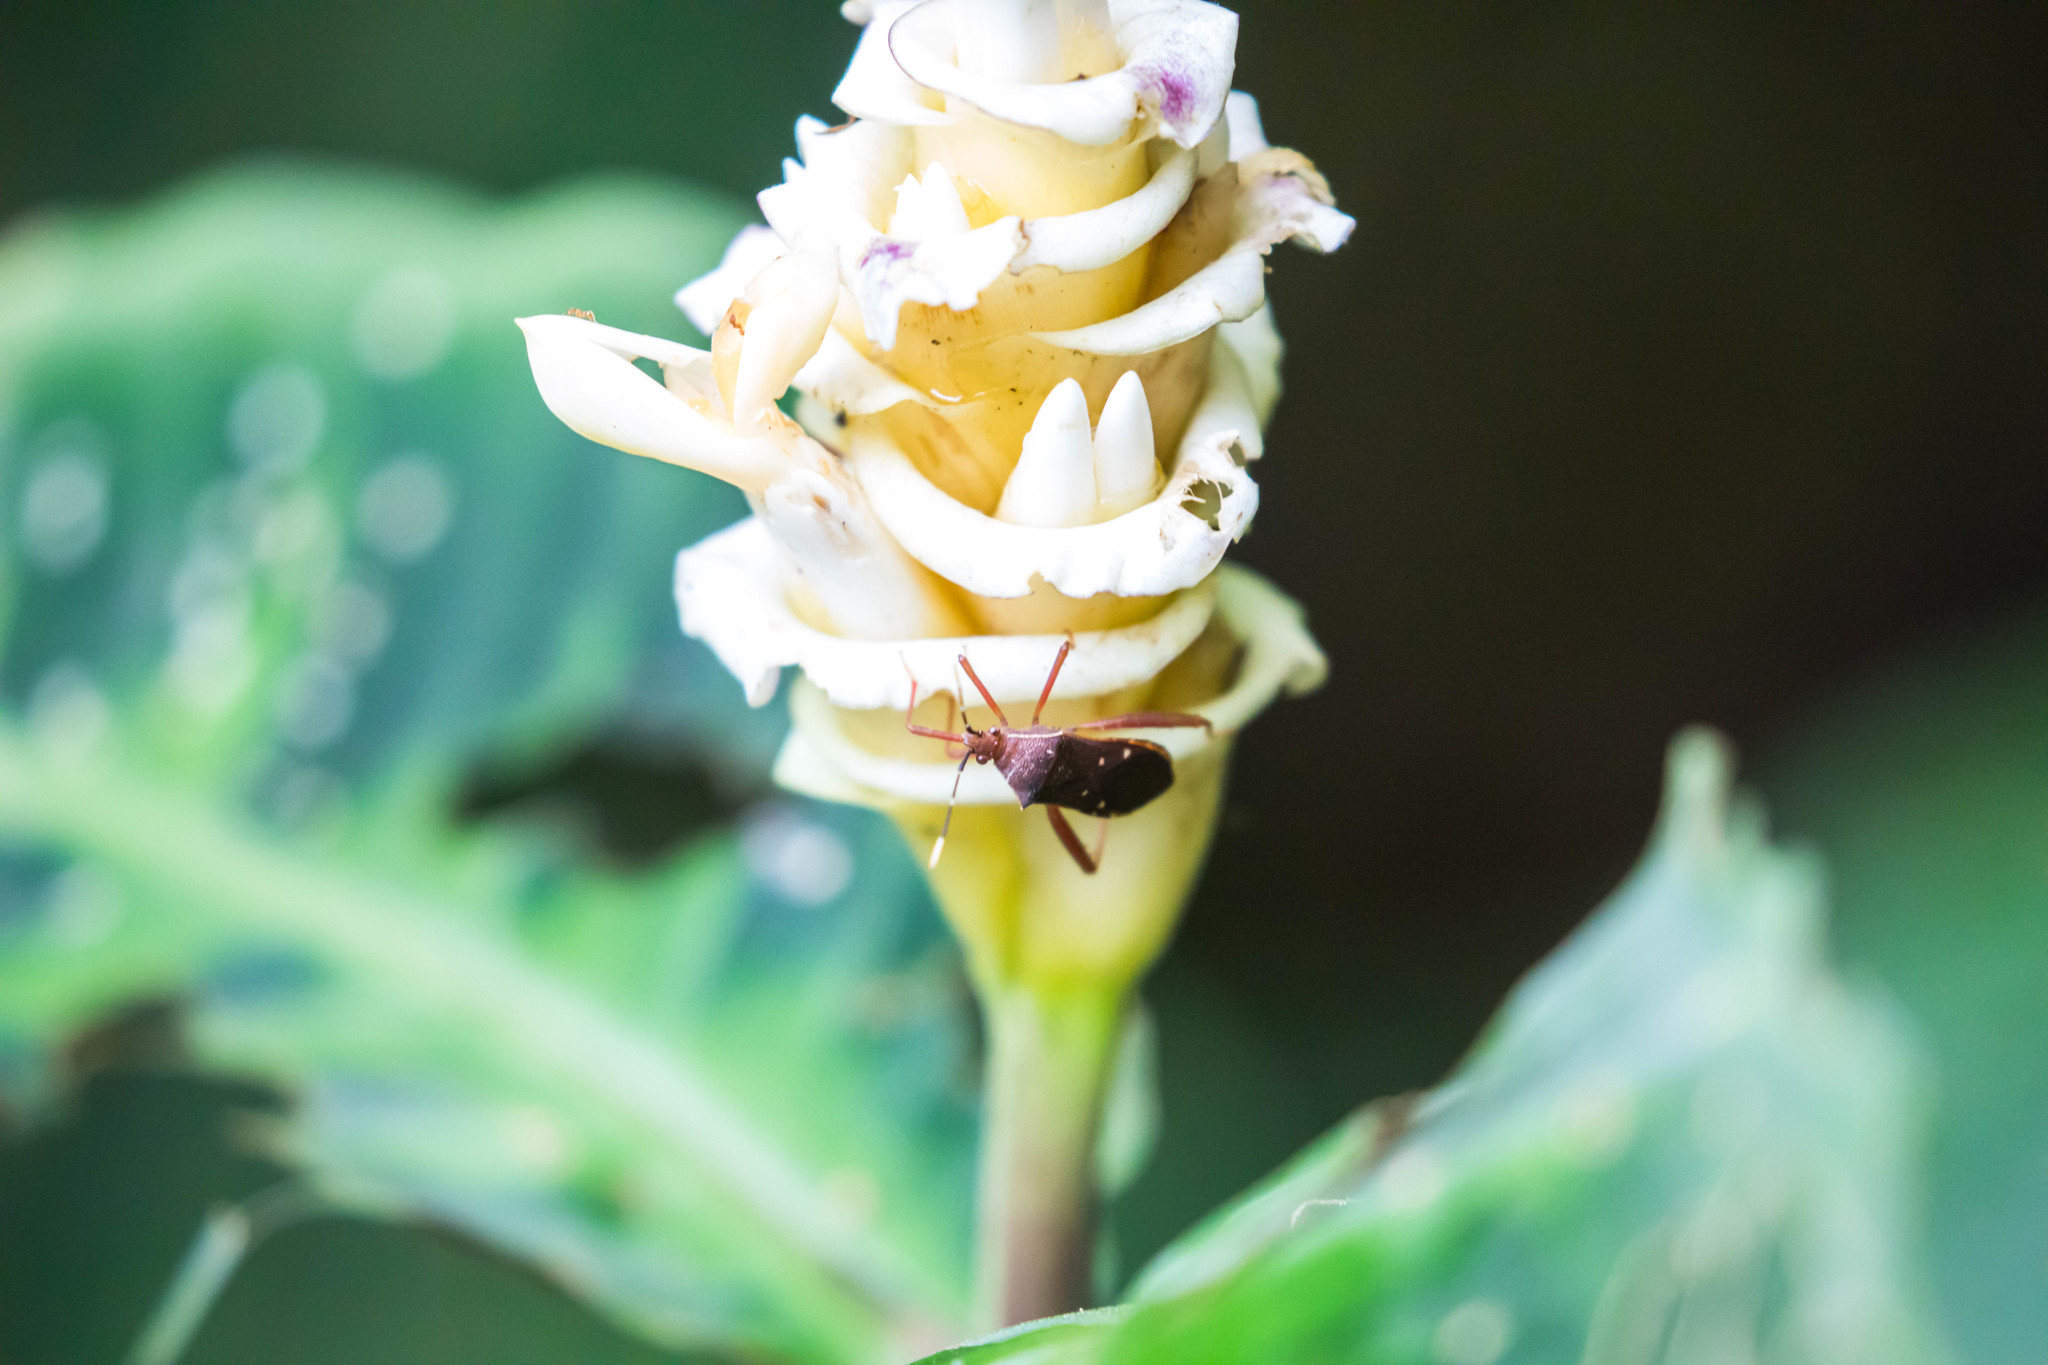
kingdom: Animalia
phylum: Arthropoda
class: Insecta
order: Hemiptera
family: Coreidae
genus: Leptoscelis
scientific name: Leptoscelis quadrisignatus
